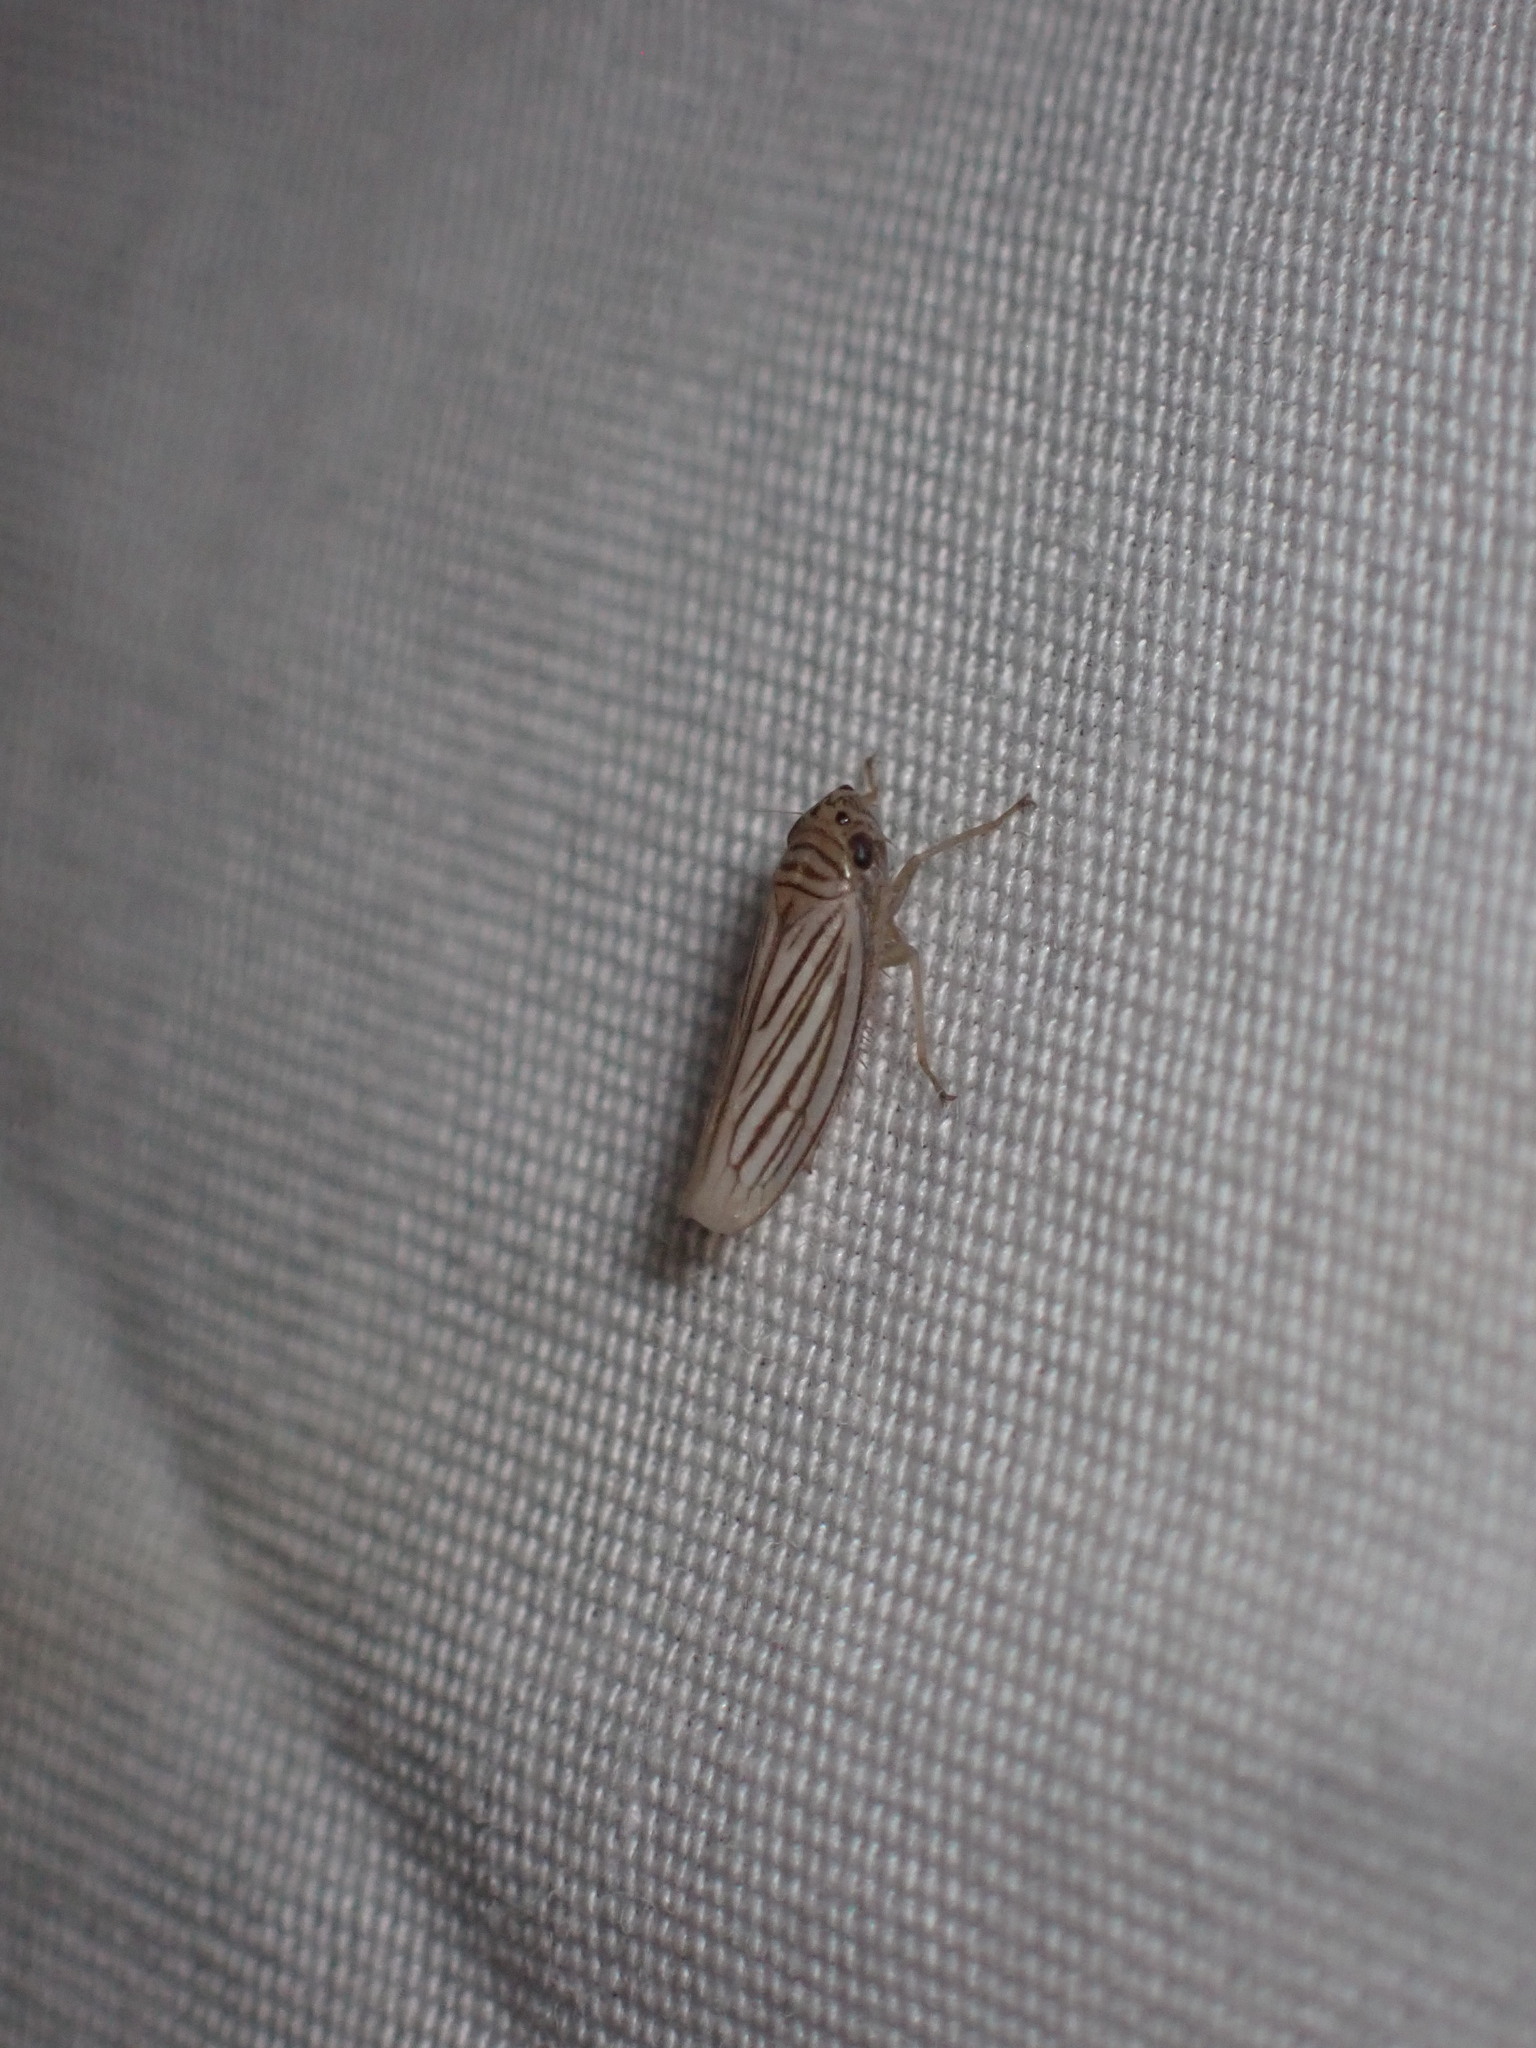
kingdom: Animalia
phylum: Arthropoda
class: Insecta
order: Hemiptera
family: Cicadellidae
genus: Provancherana
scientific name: Provancherana tripunctata
